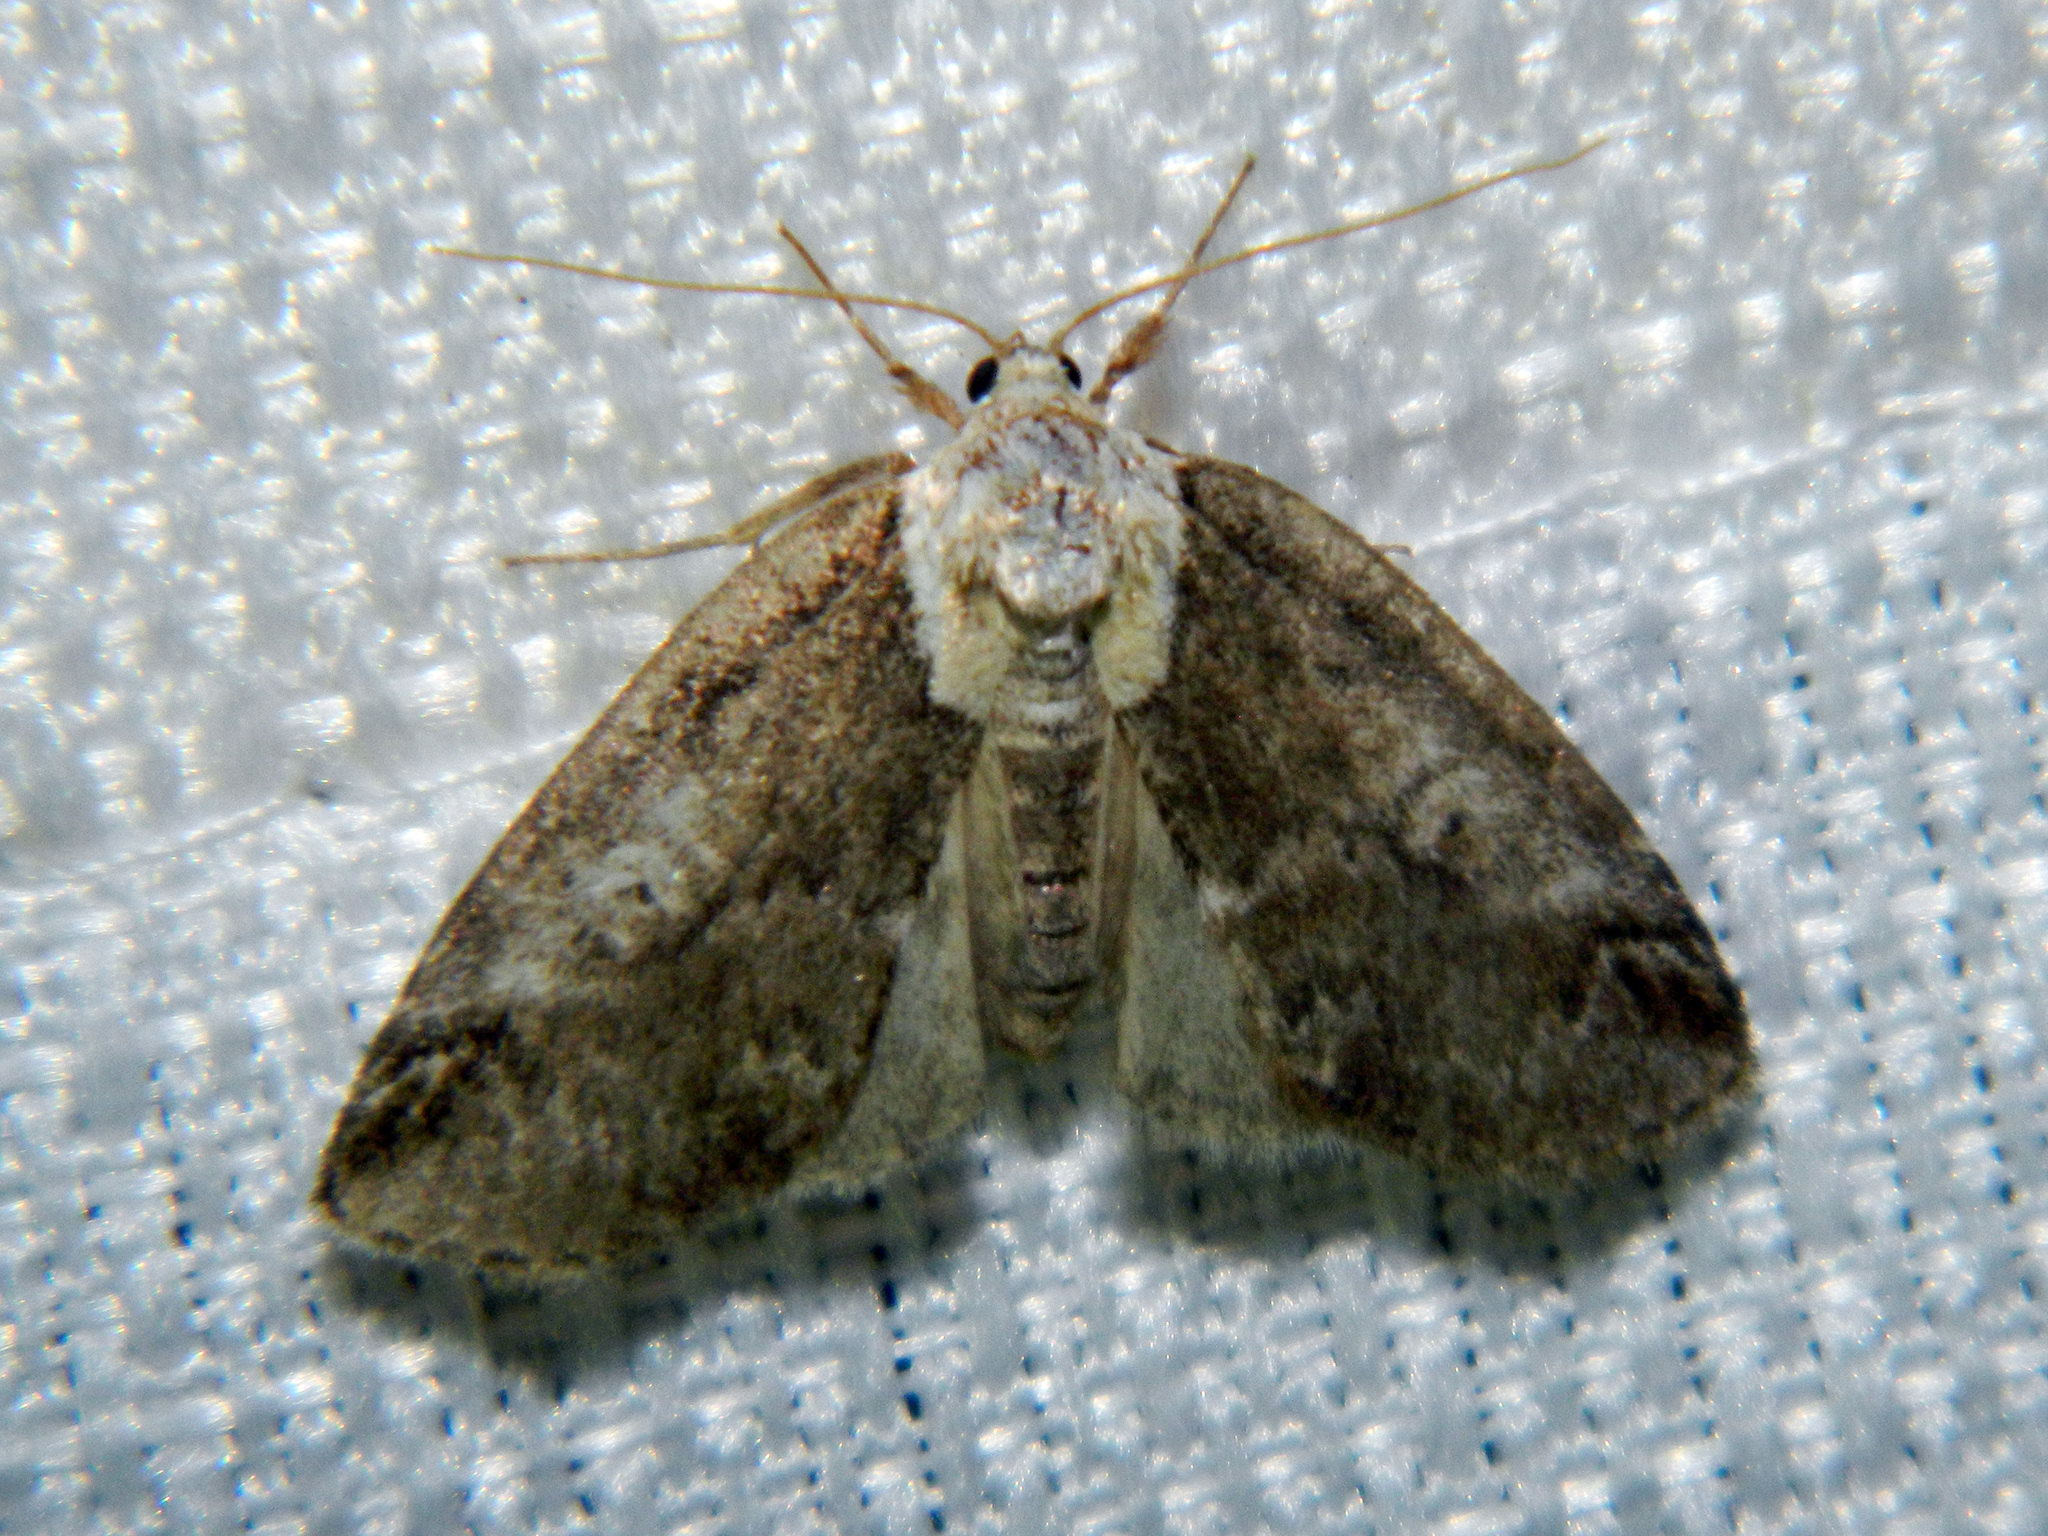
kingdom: Animalia
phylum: Arthropoda
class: Insecta
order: Lepidoptera
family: Nolidae
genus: Baileya
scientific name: Baileya ophthalmica
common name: Eyed baileya moth
